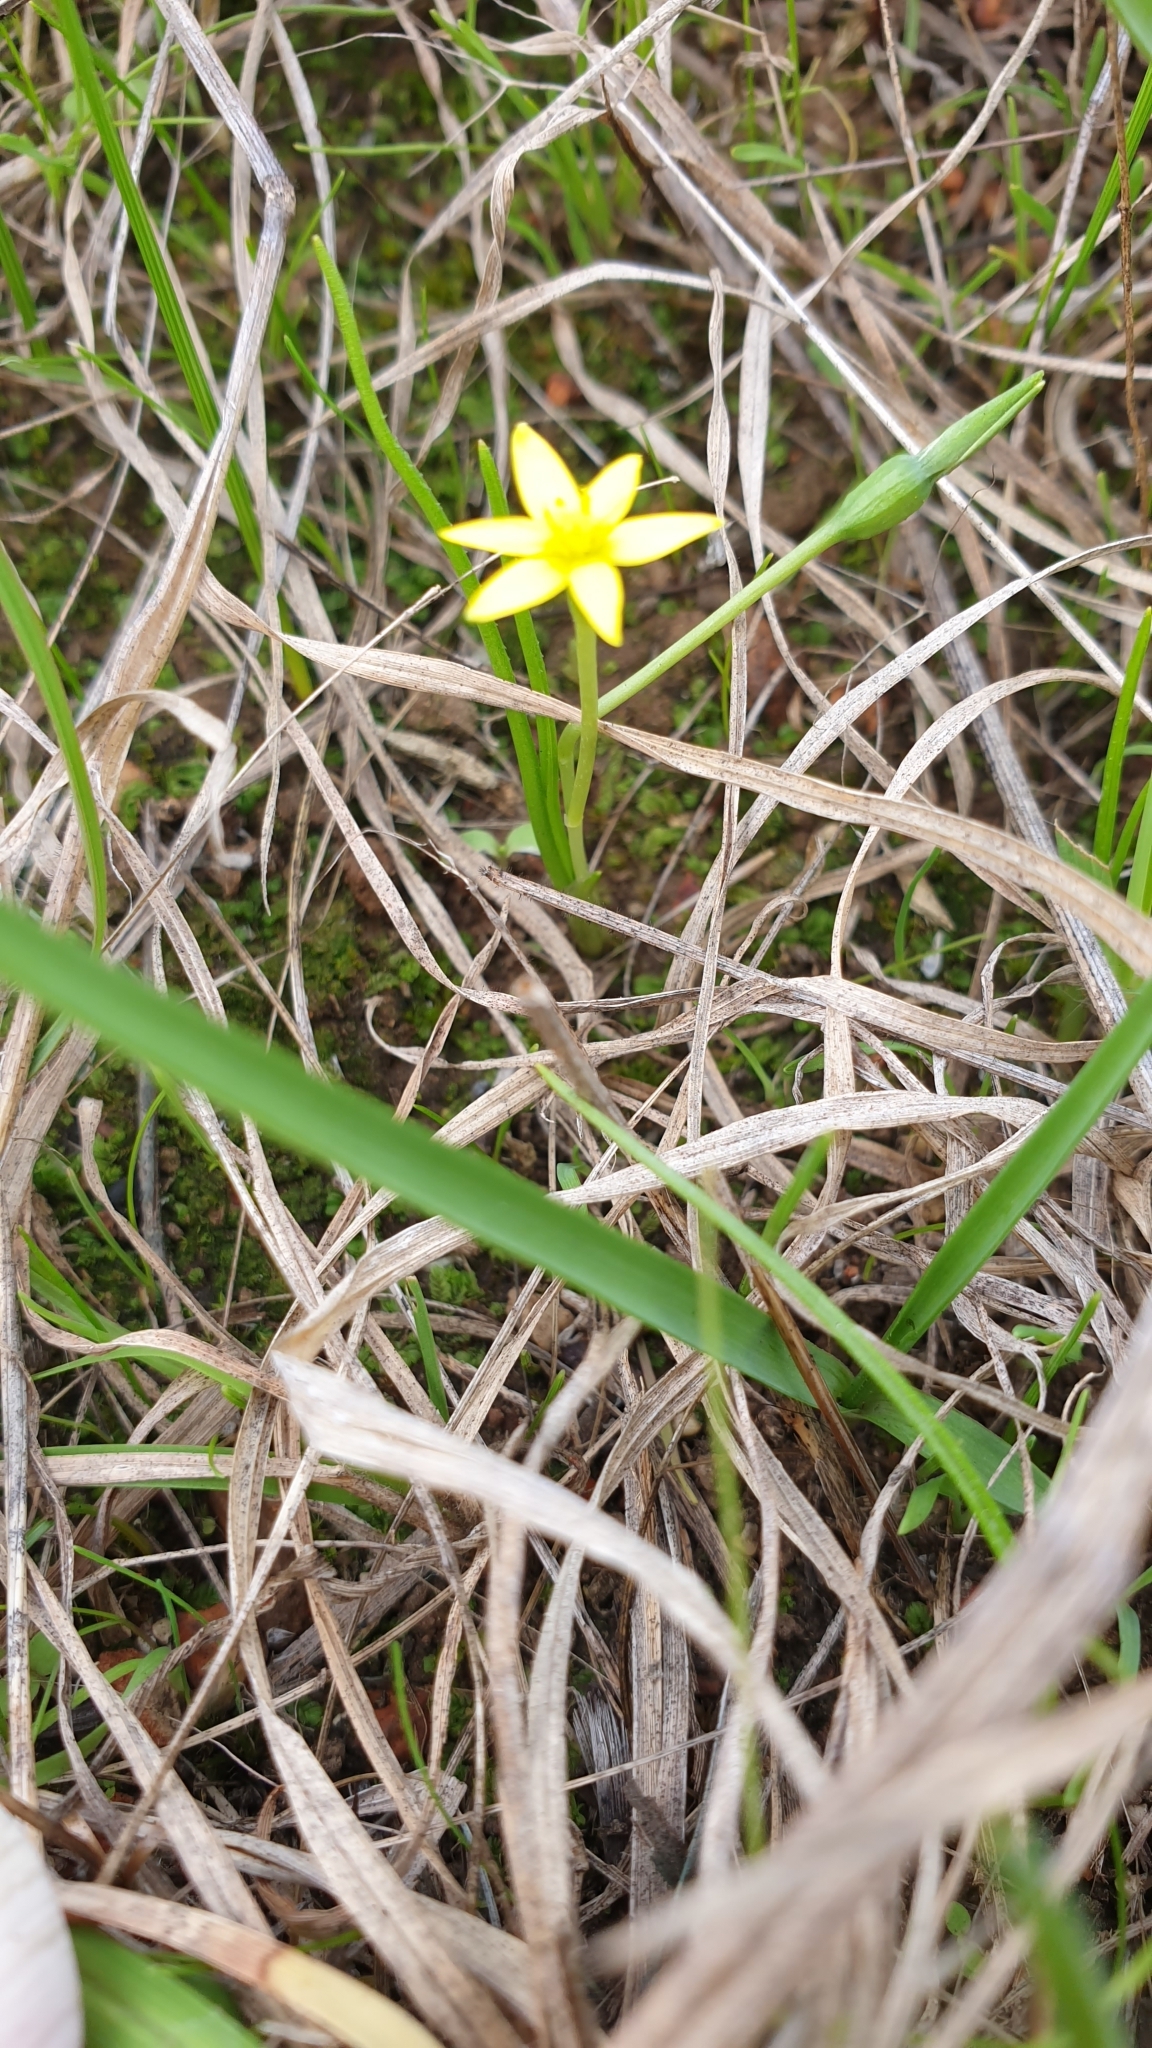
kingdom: Plantae
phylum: Tracheophyta
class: Liliopsida
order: Asparagales
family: Hypoxidaceae
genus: Pauridia
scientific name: Pauridia vaginata
